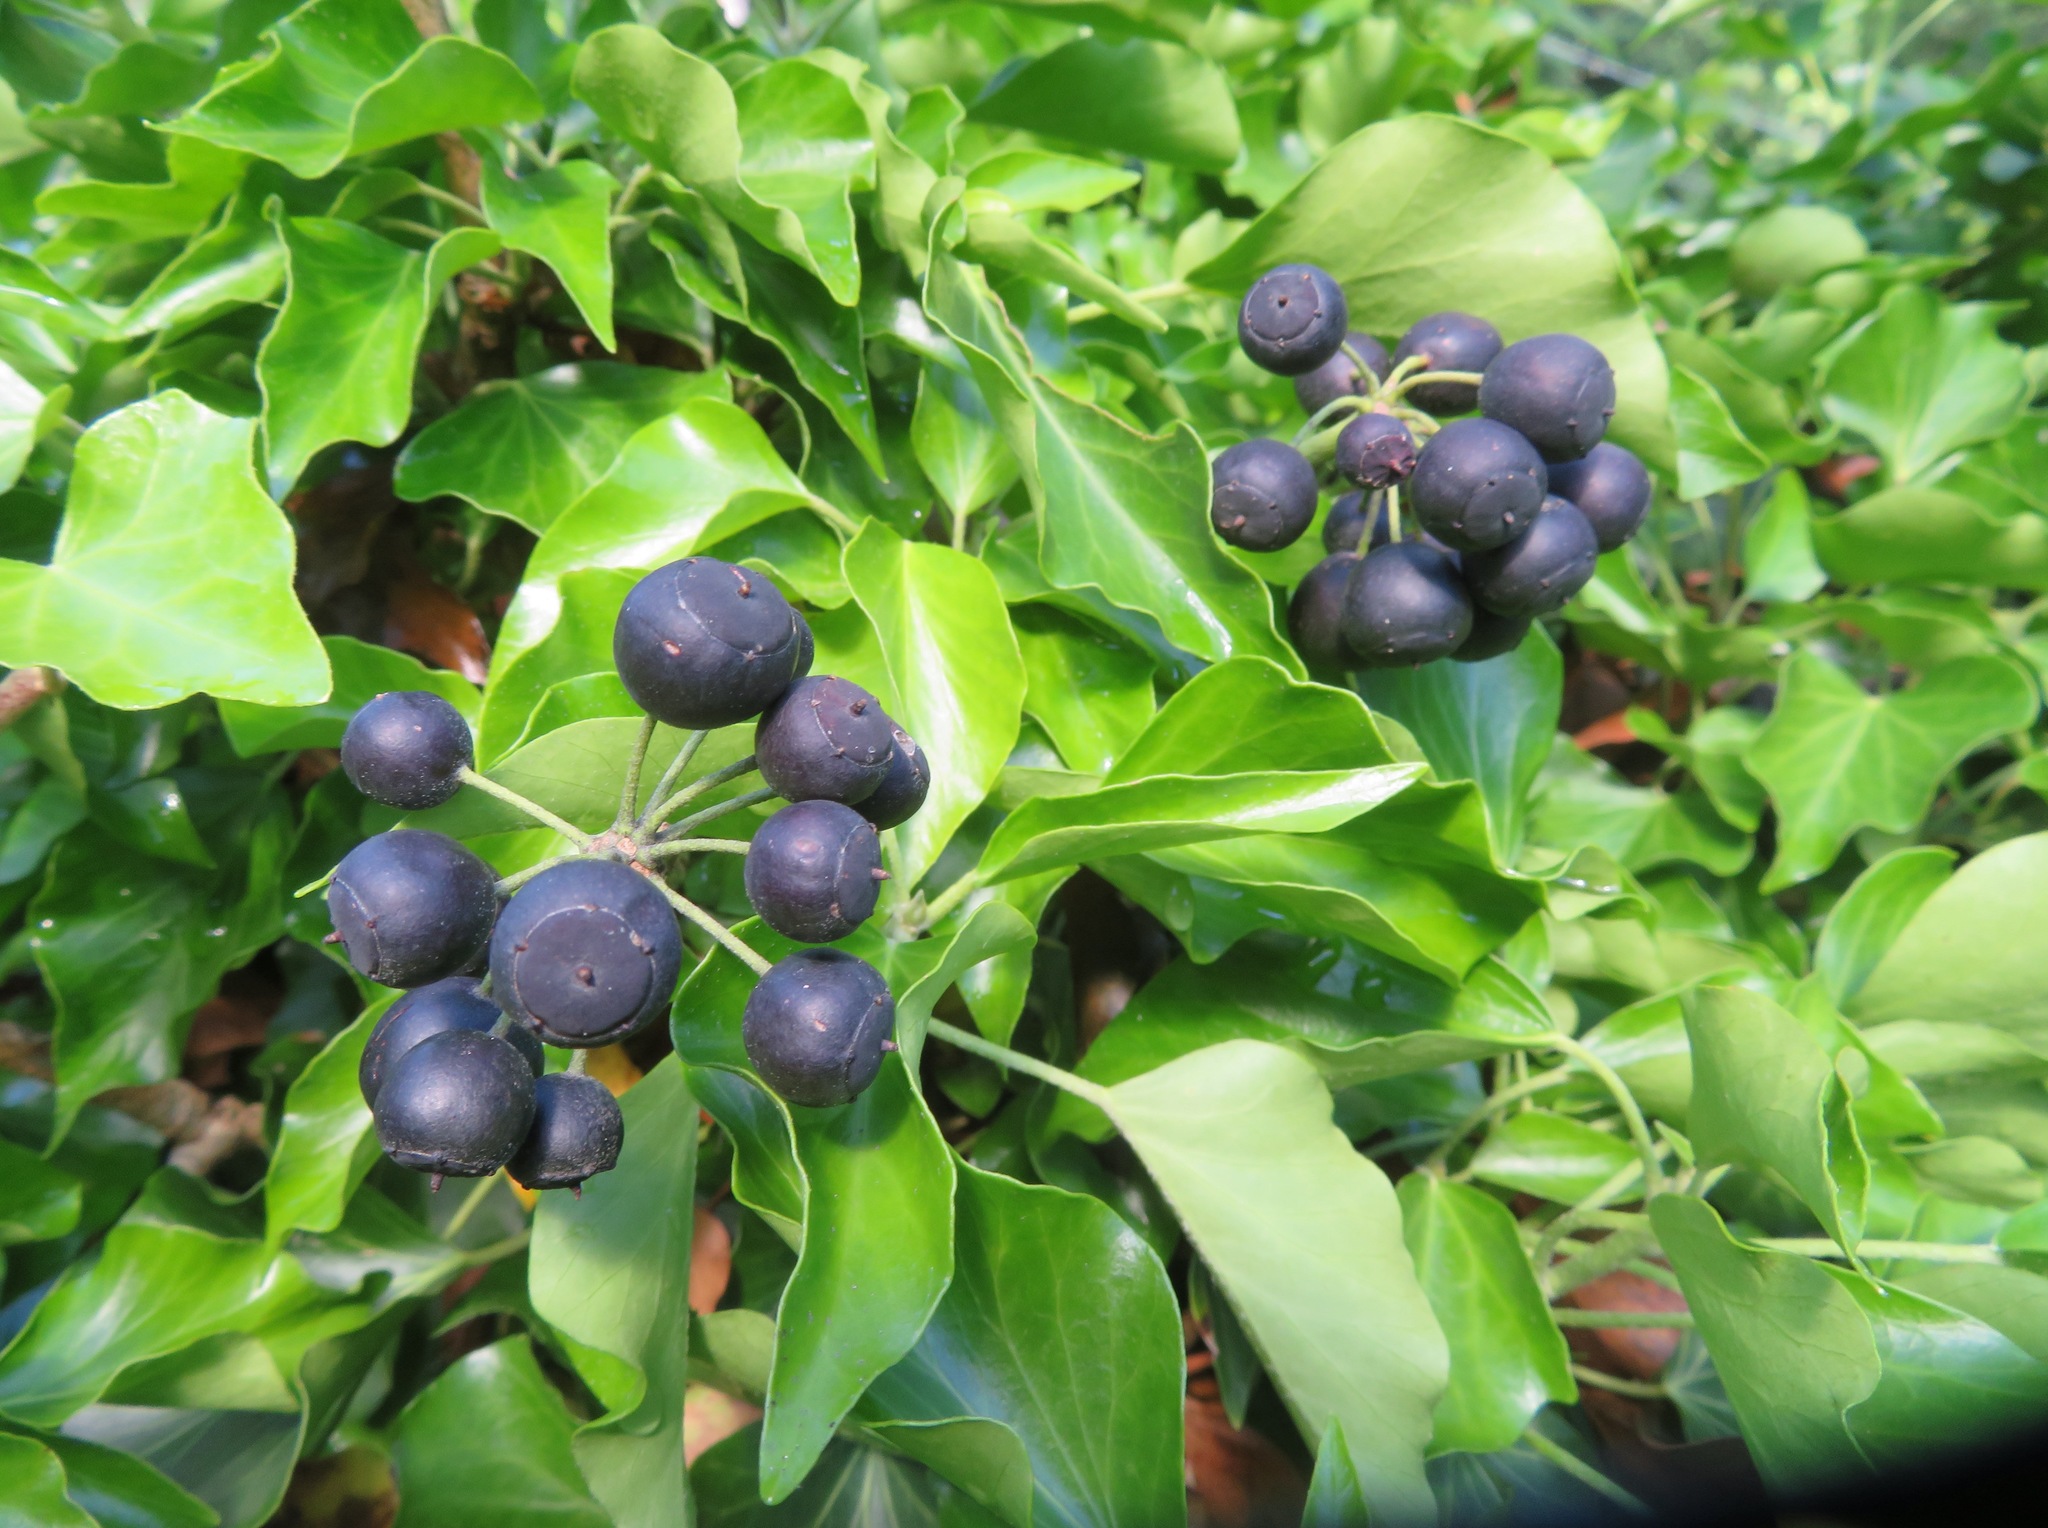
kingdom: Plantae
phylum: Tracheophyta
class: Magnoliopsida
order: Apiales
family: Araliaceae
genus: Hedera
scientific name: Hedera helix
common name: Ivy
